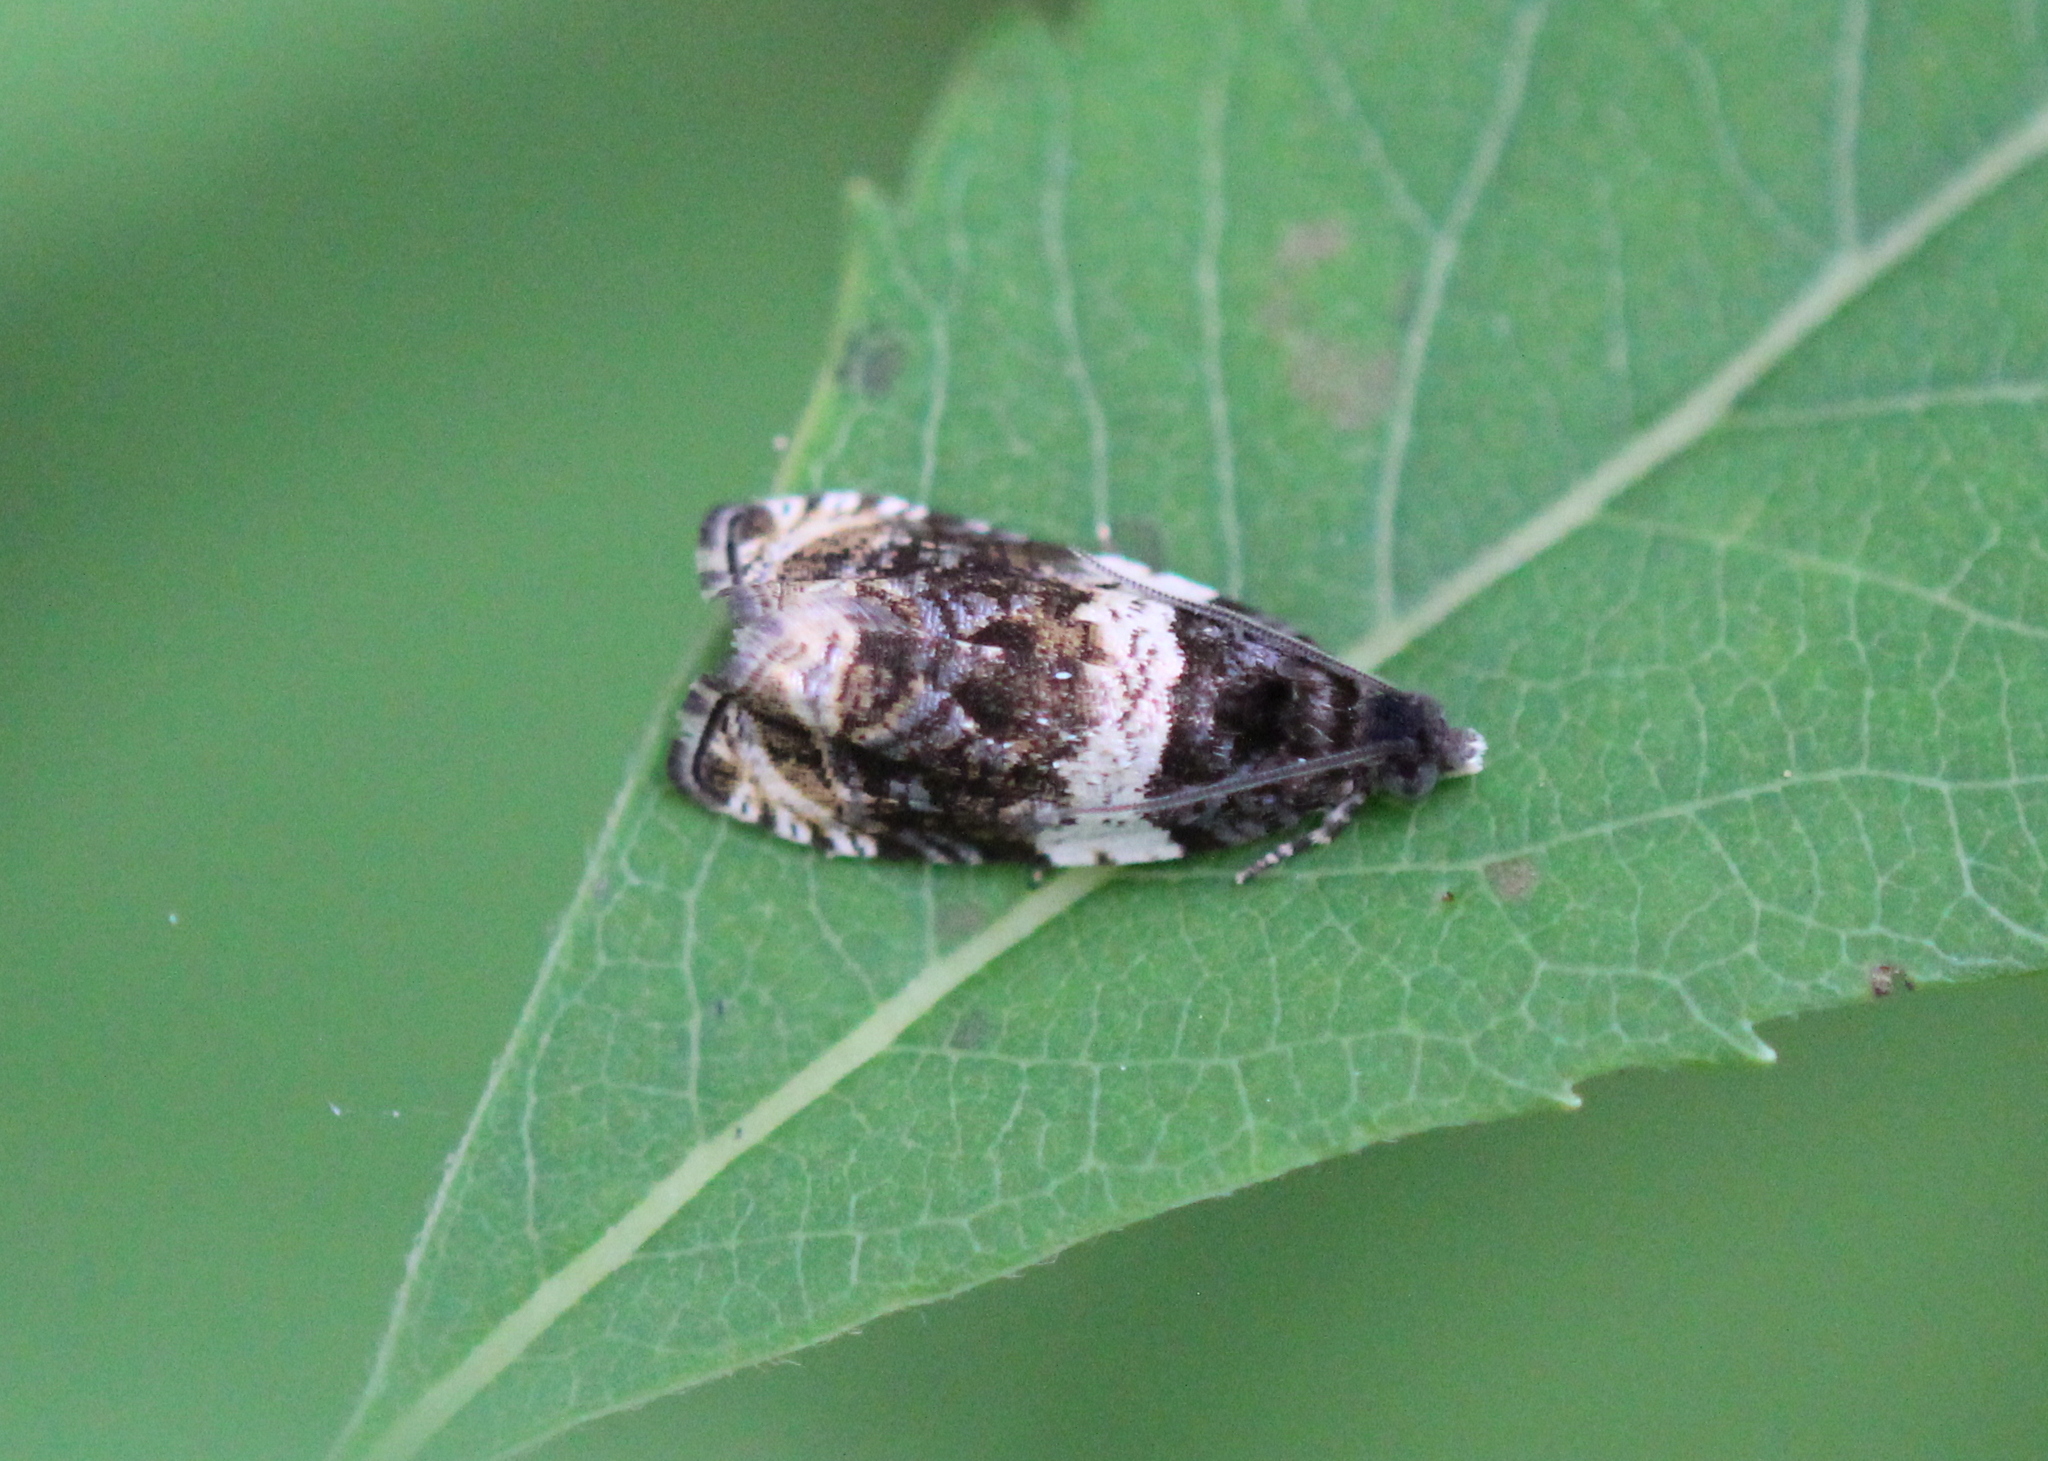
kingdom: Animalia
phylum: Arthropoda
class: Insecta
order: Lepidoptera
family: Tortricidae
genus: Olethreutes
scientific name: Olethreutes fasciatana
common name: Banded olethreutes moth
